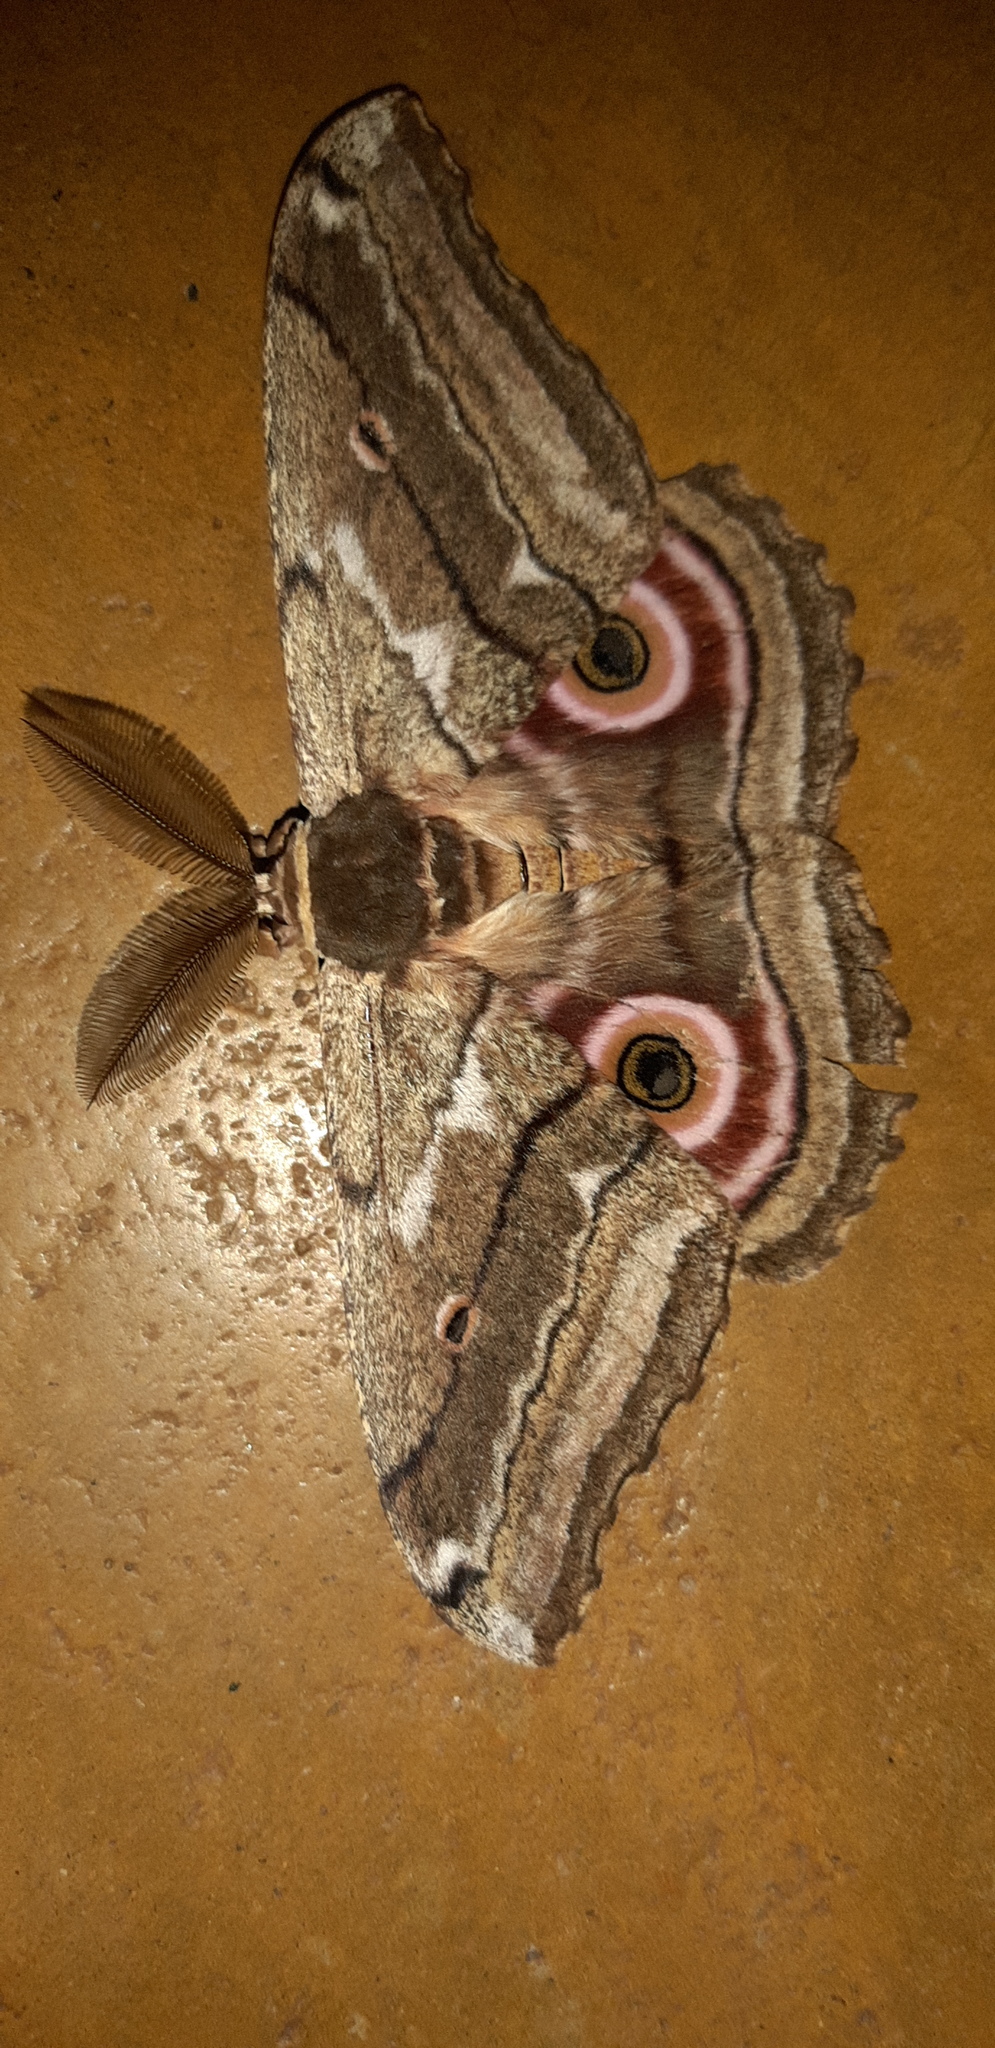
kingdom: Animalia
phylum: Arthropoda
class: Insecta
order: Lepidoptera
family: Saturniidae
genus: Gynanisa
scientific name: Gynanisa maja
